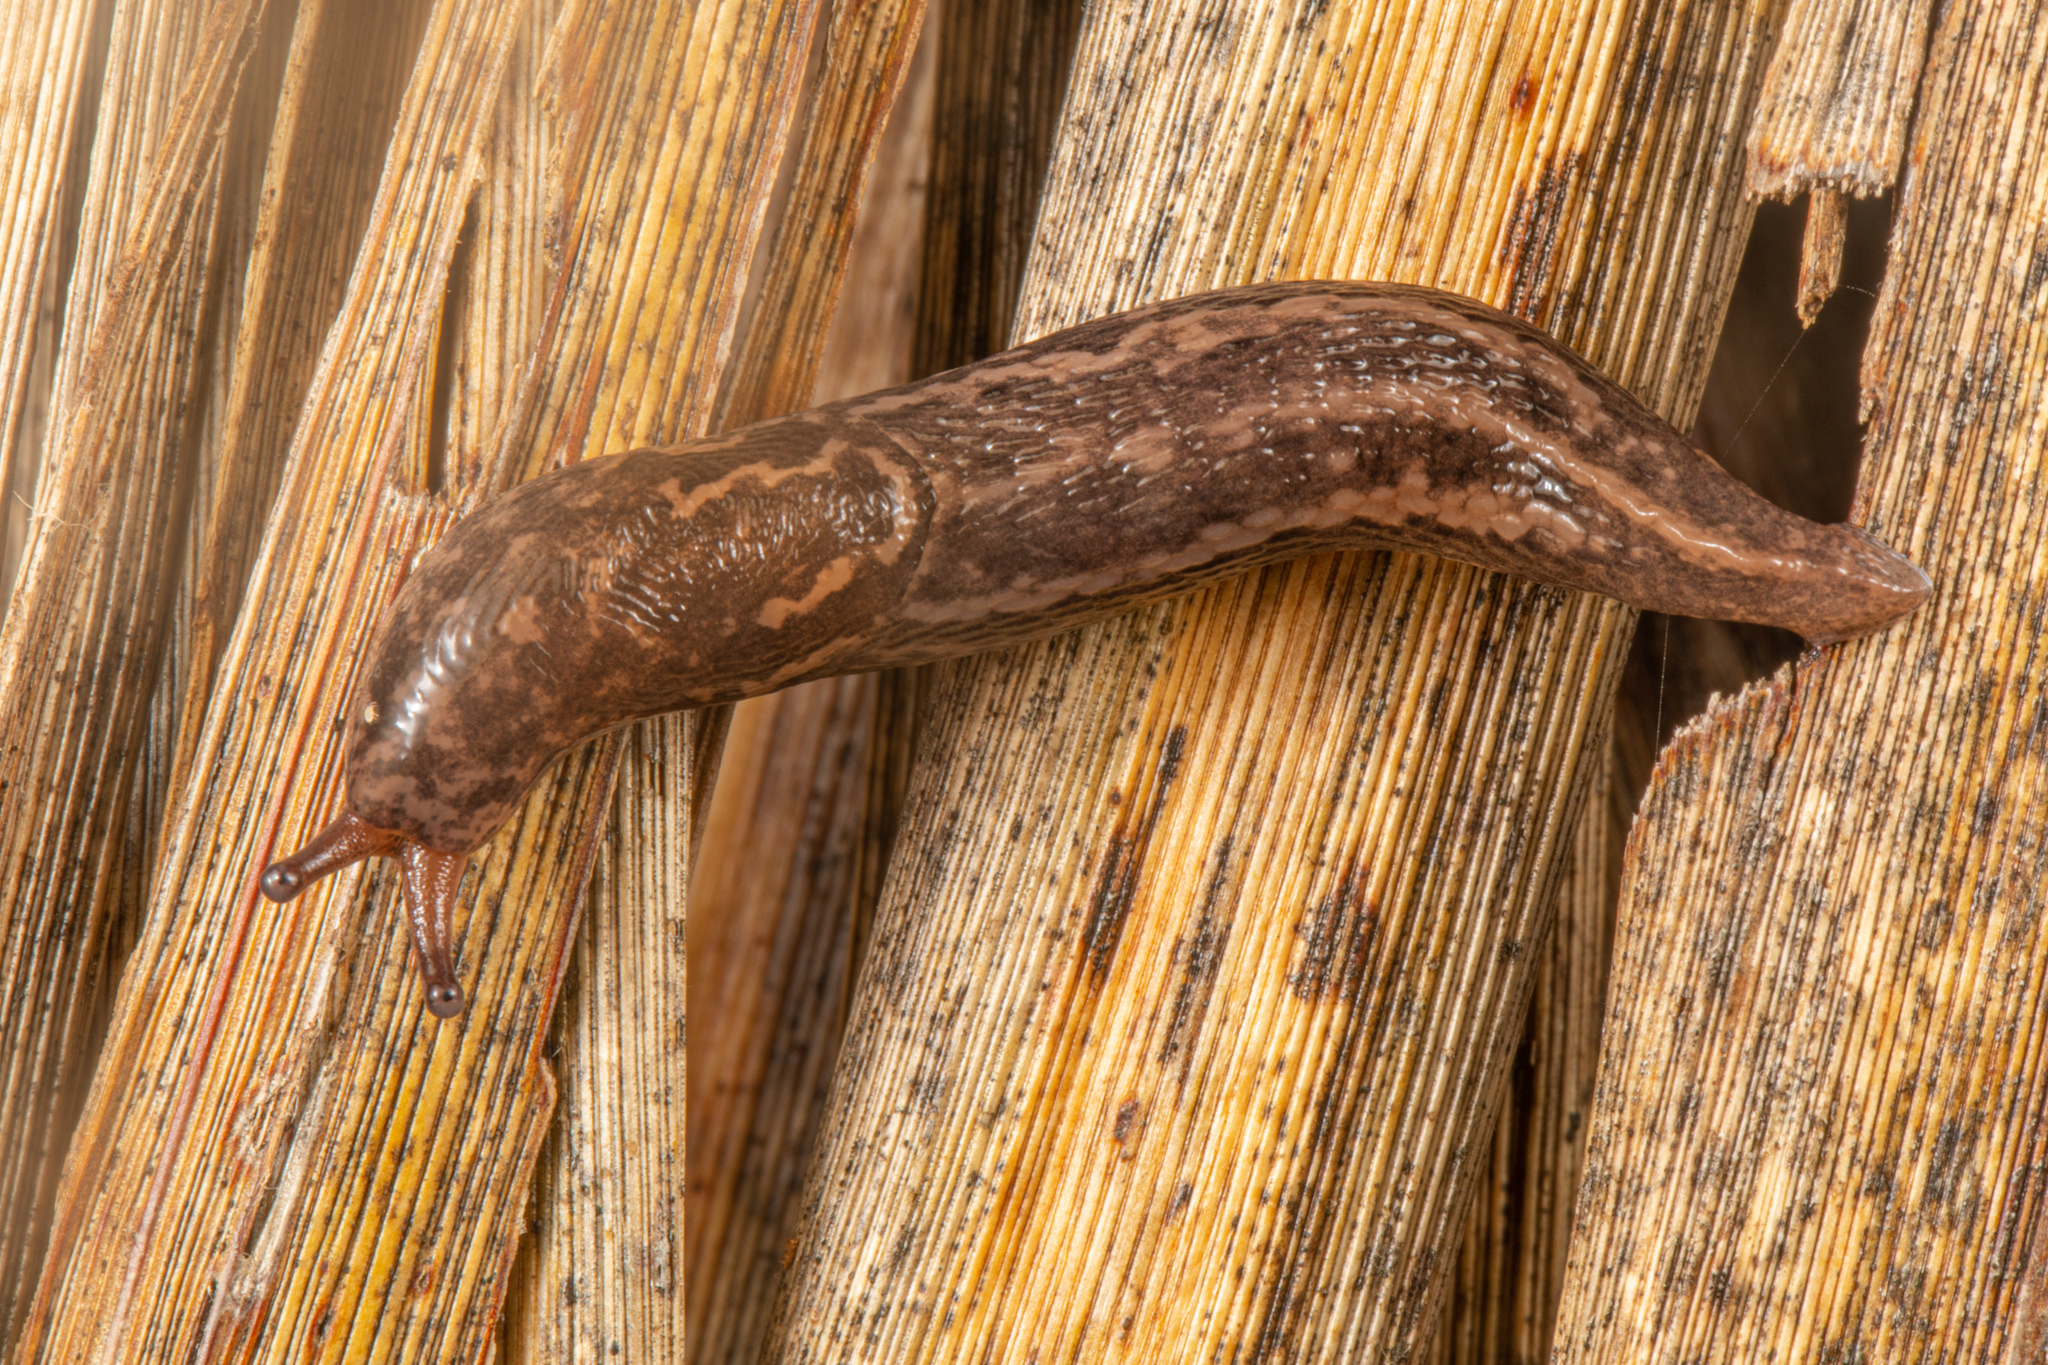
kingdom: Animalia
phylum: Mollusca
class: Gastropoda
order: Stylommatophora
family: Limacidae
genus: Limax
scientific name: Limax maximus
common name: Great grey slug
